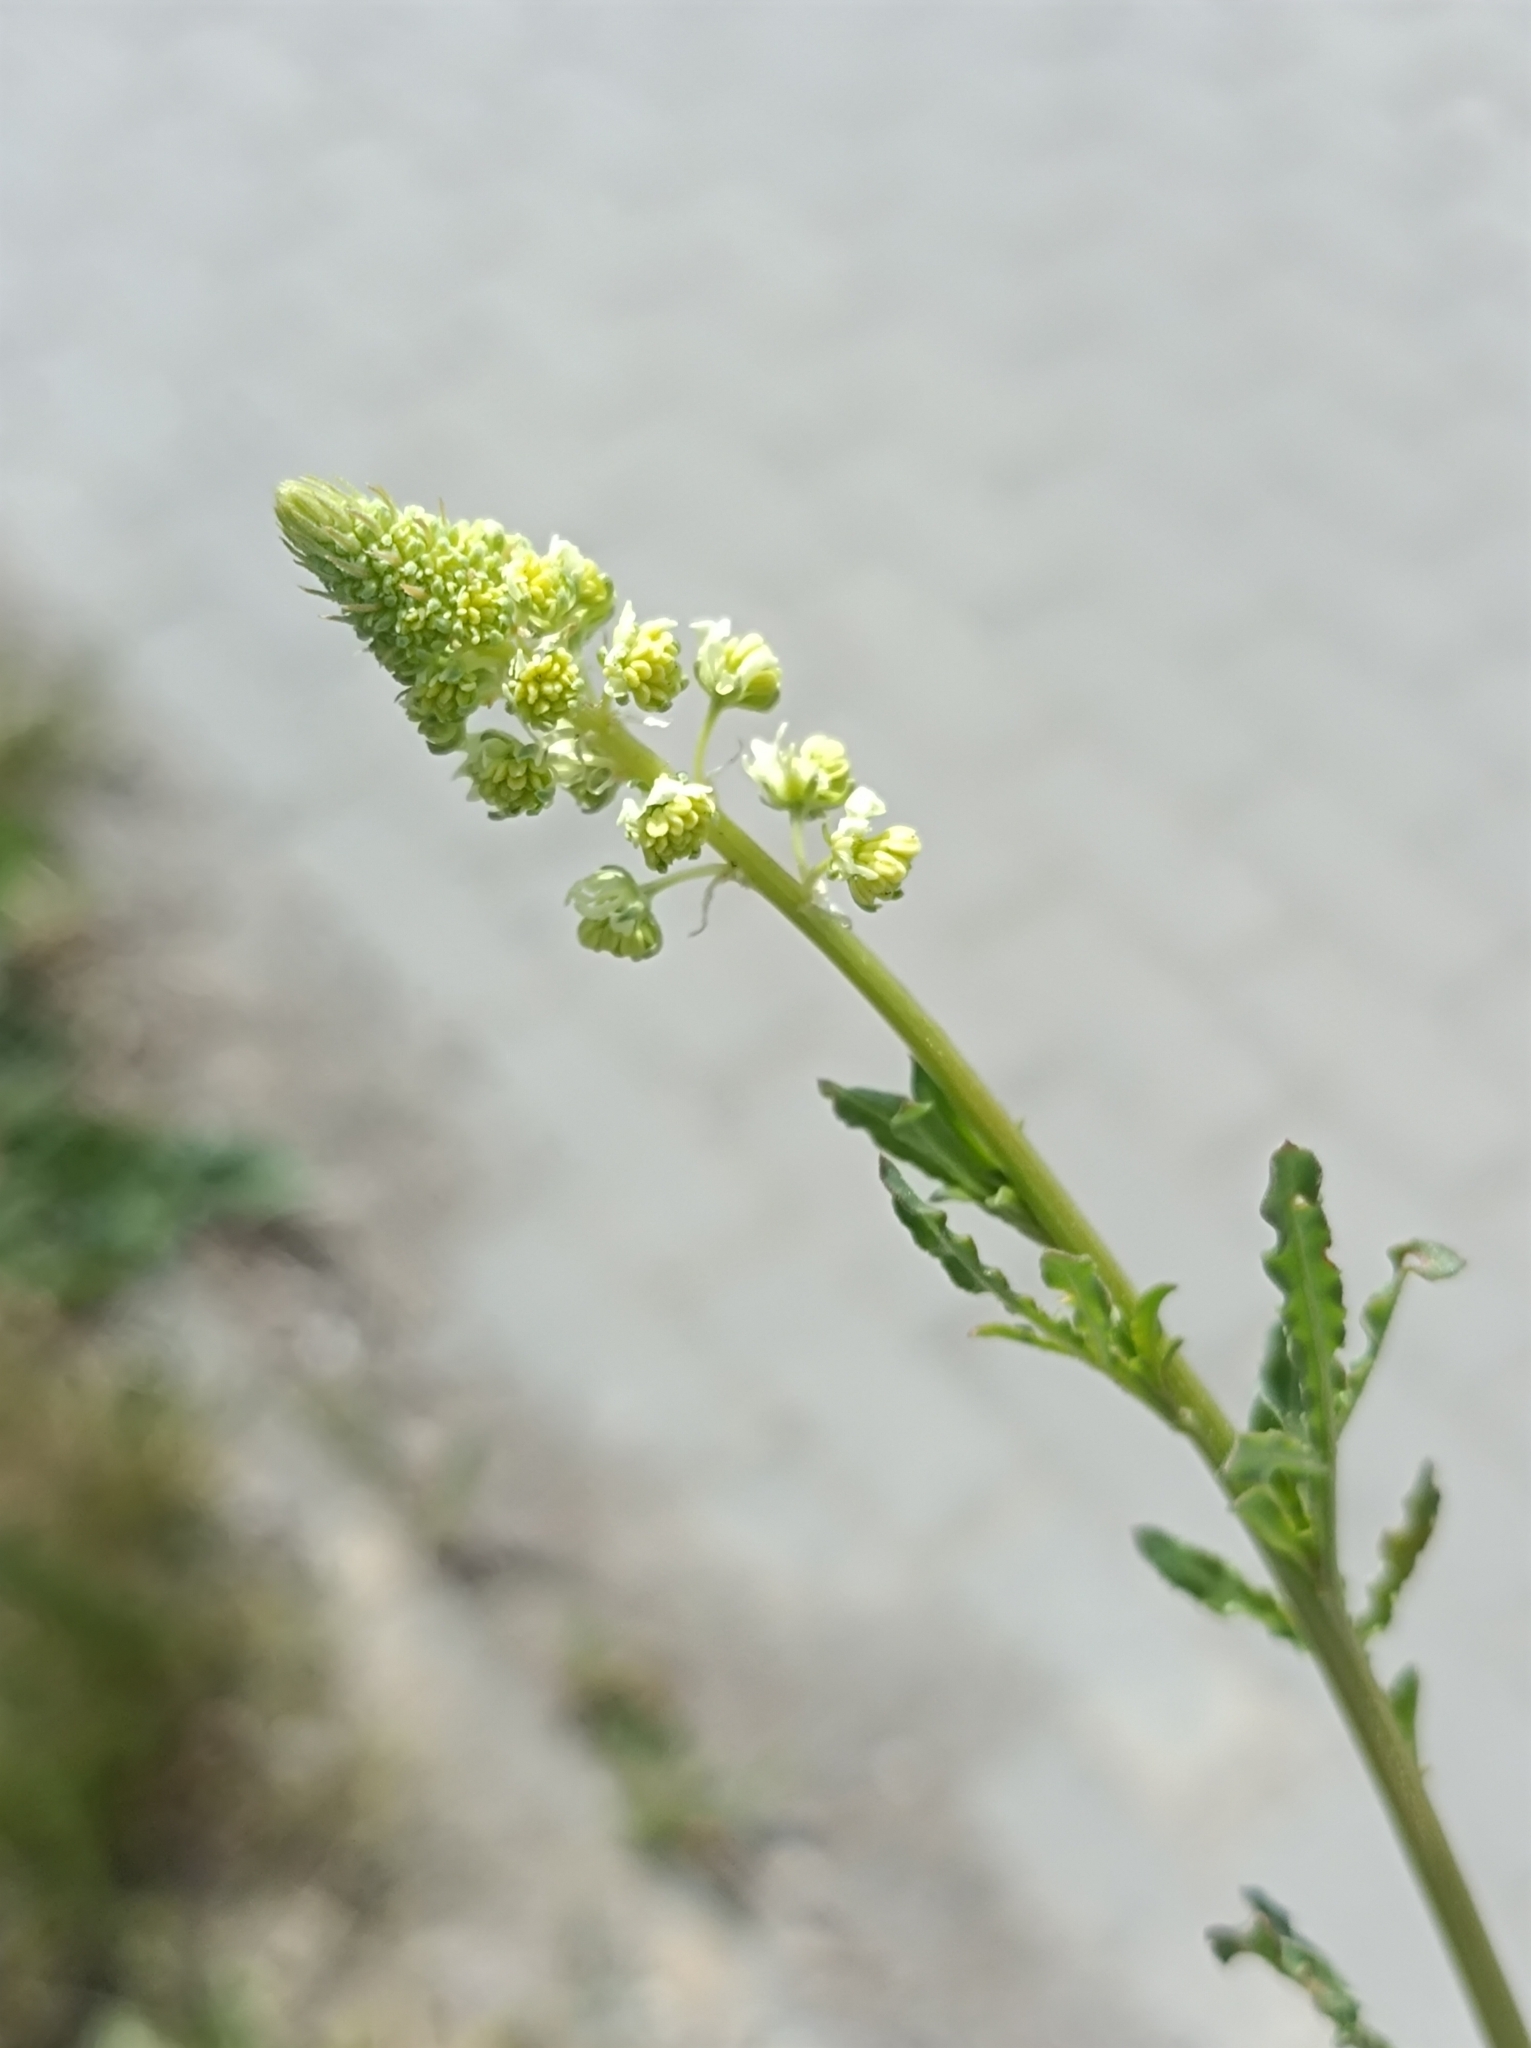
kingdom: Plantae
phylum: Tracheophyta
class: Magnoliopsida
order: Brassicales
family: Resedaceae
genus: Reseda
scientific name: Reseda lutea
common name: Wild mignonette
